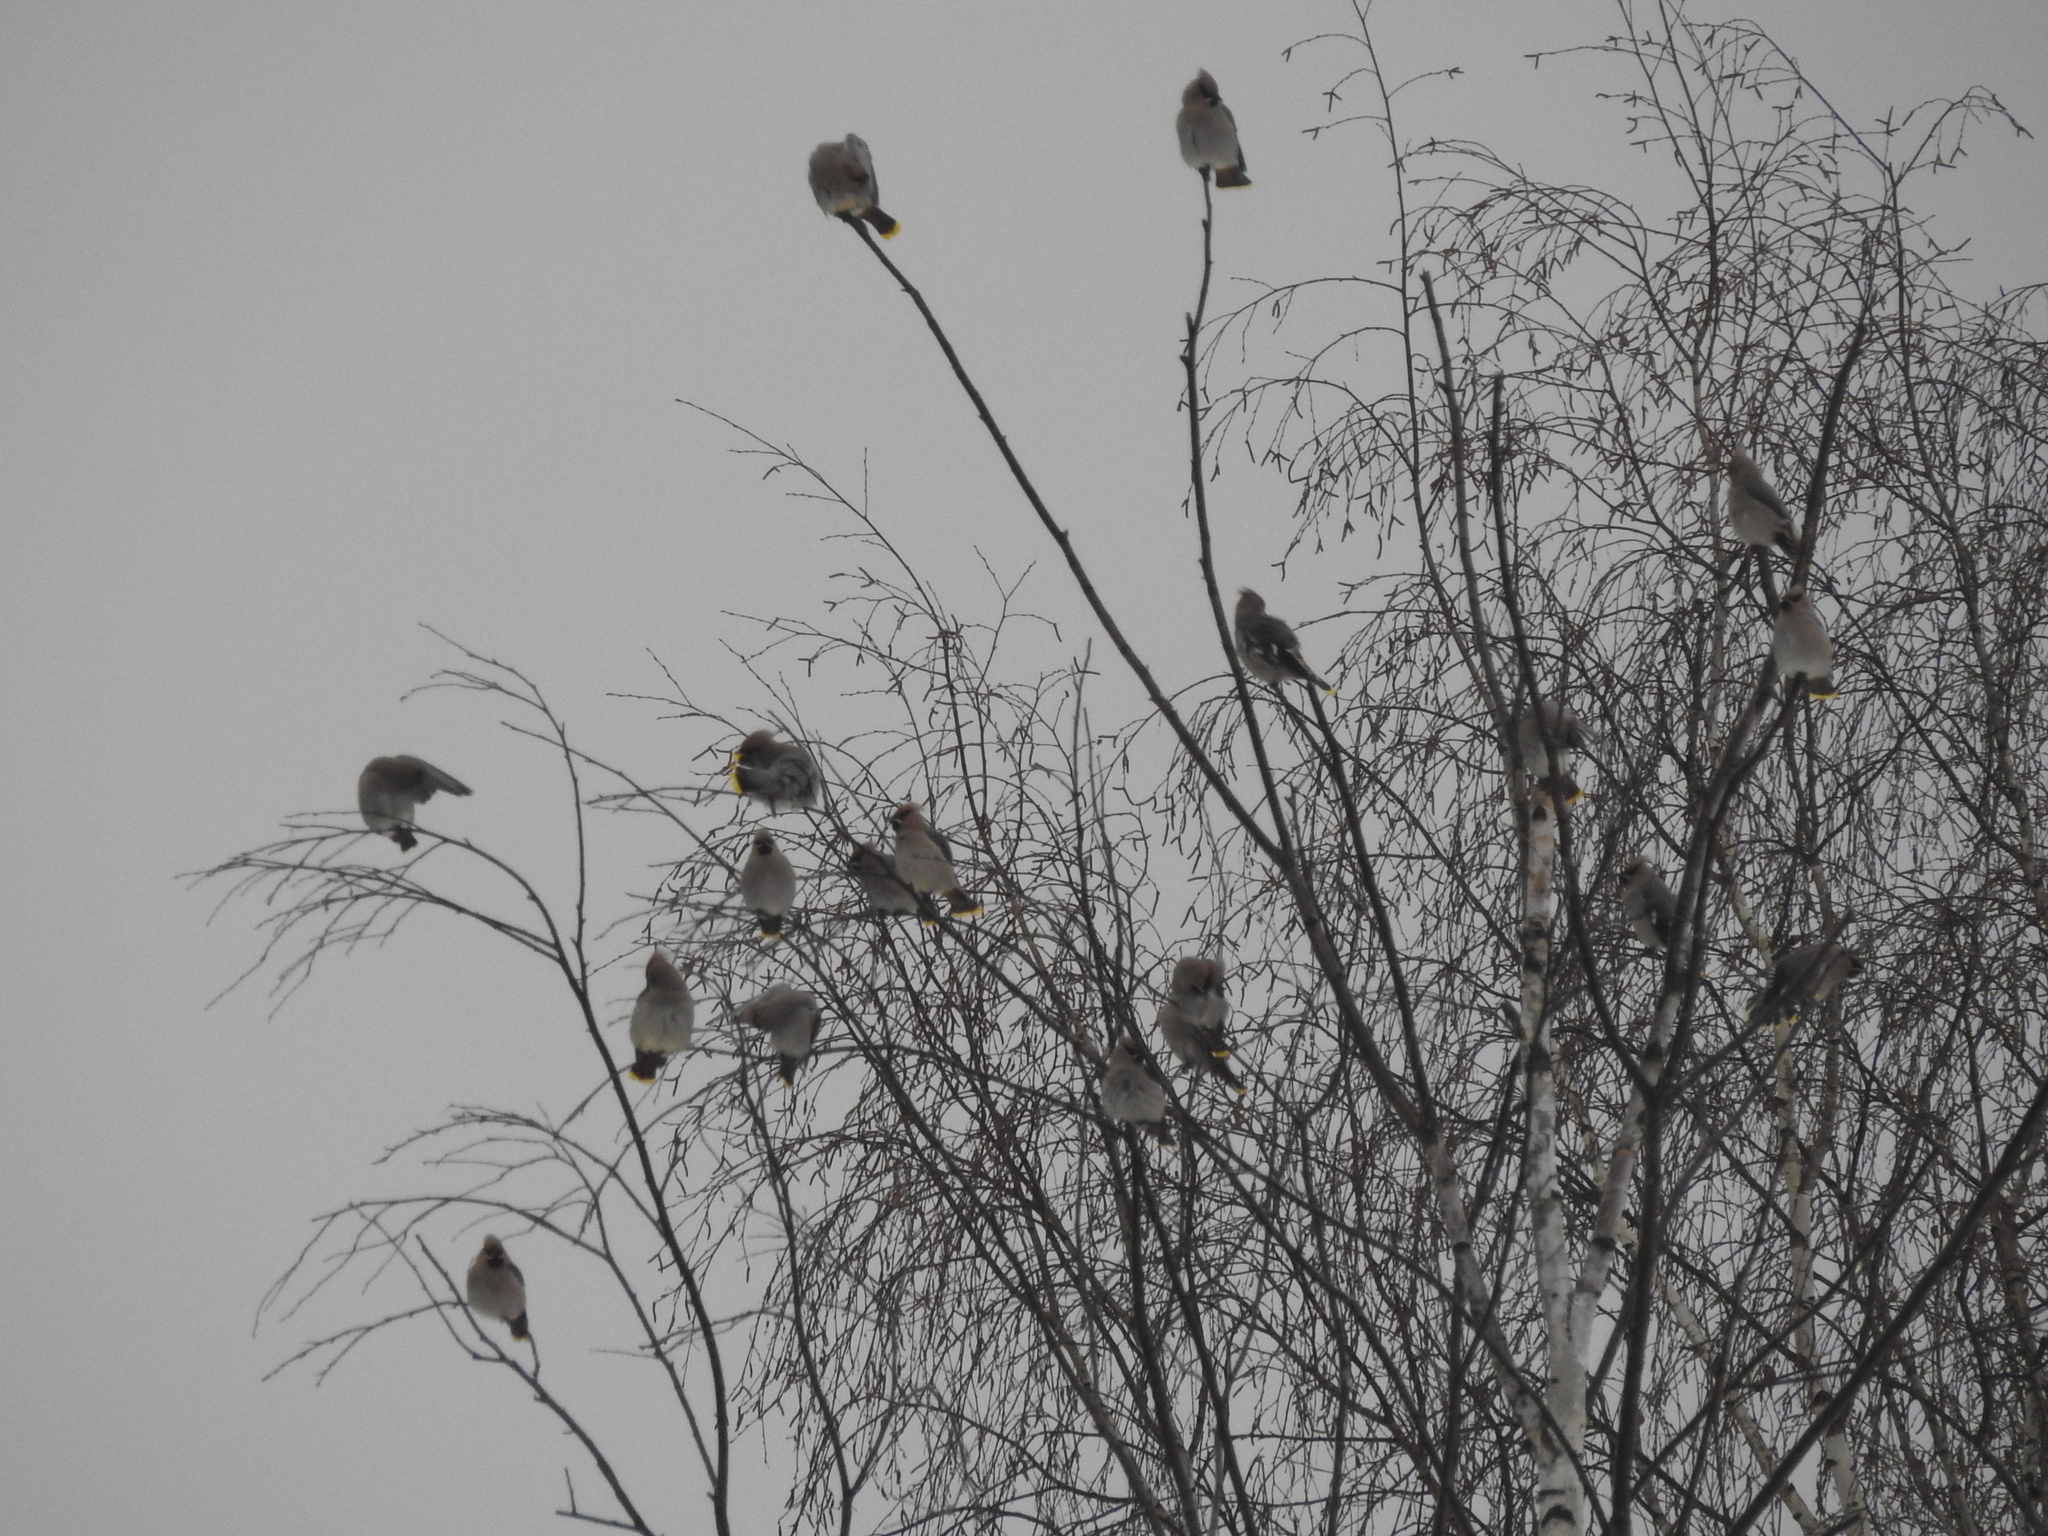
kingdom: Animalia
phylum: Chordata
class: Aves
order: Passeriformes
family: Bombycillidae
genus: Bombycilla
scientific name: Bombycilla garrulus
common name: Bohemian waxwing
